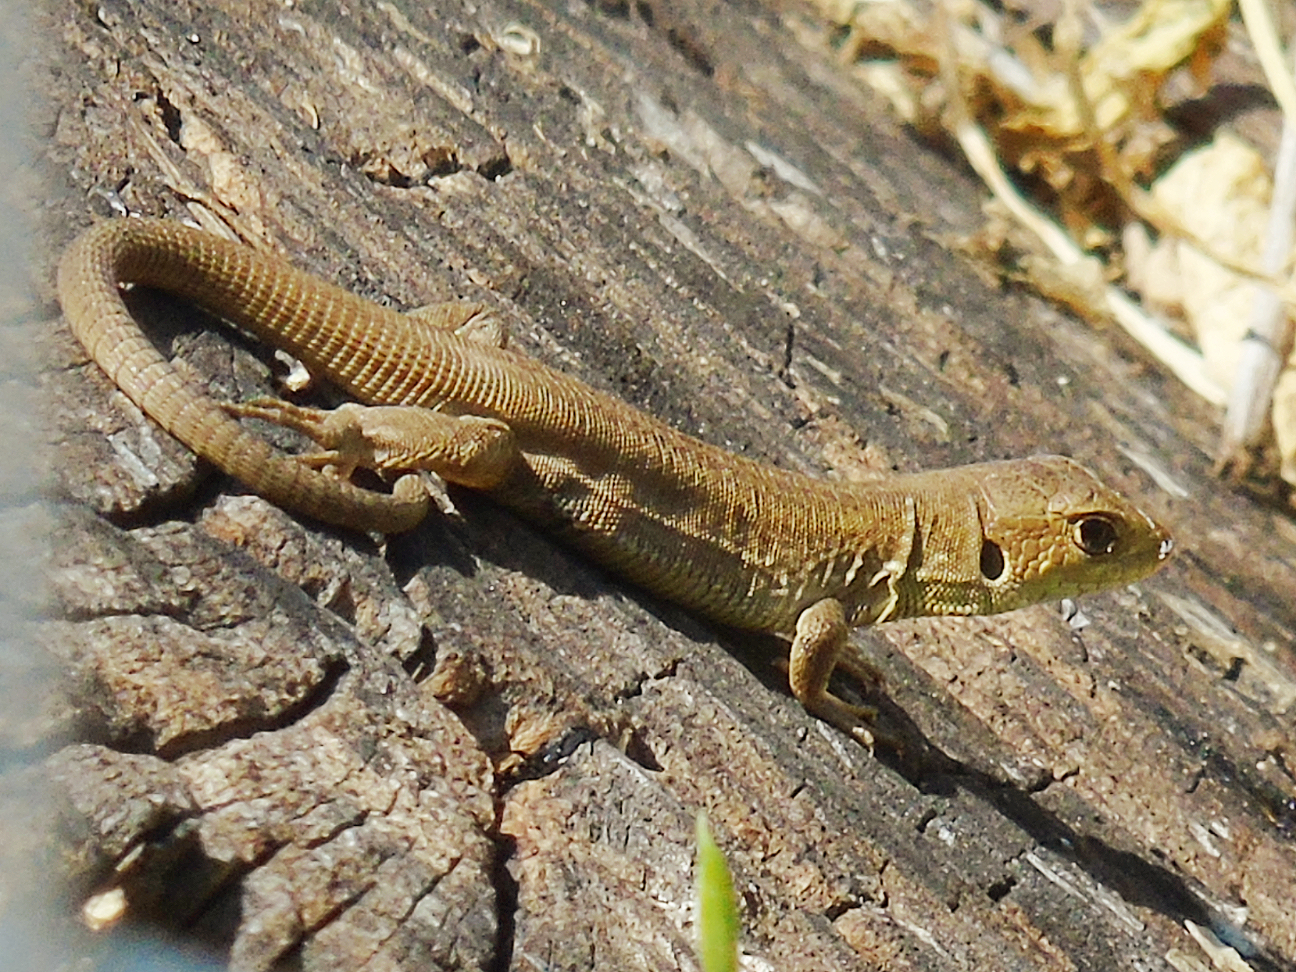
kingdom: Animalia
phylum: Chordata
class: Squamata
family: Lacertidae
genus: Lacerta
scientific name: Lacerta trilineata
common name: Balkan green lizard
